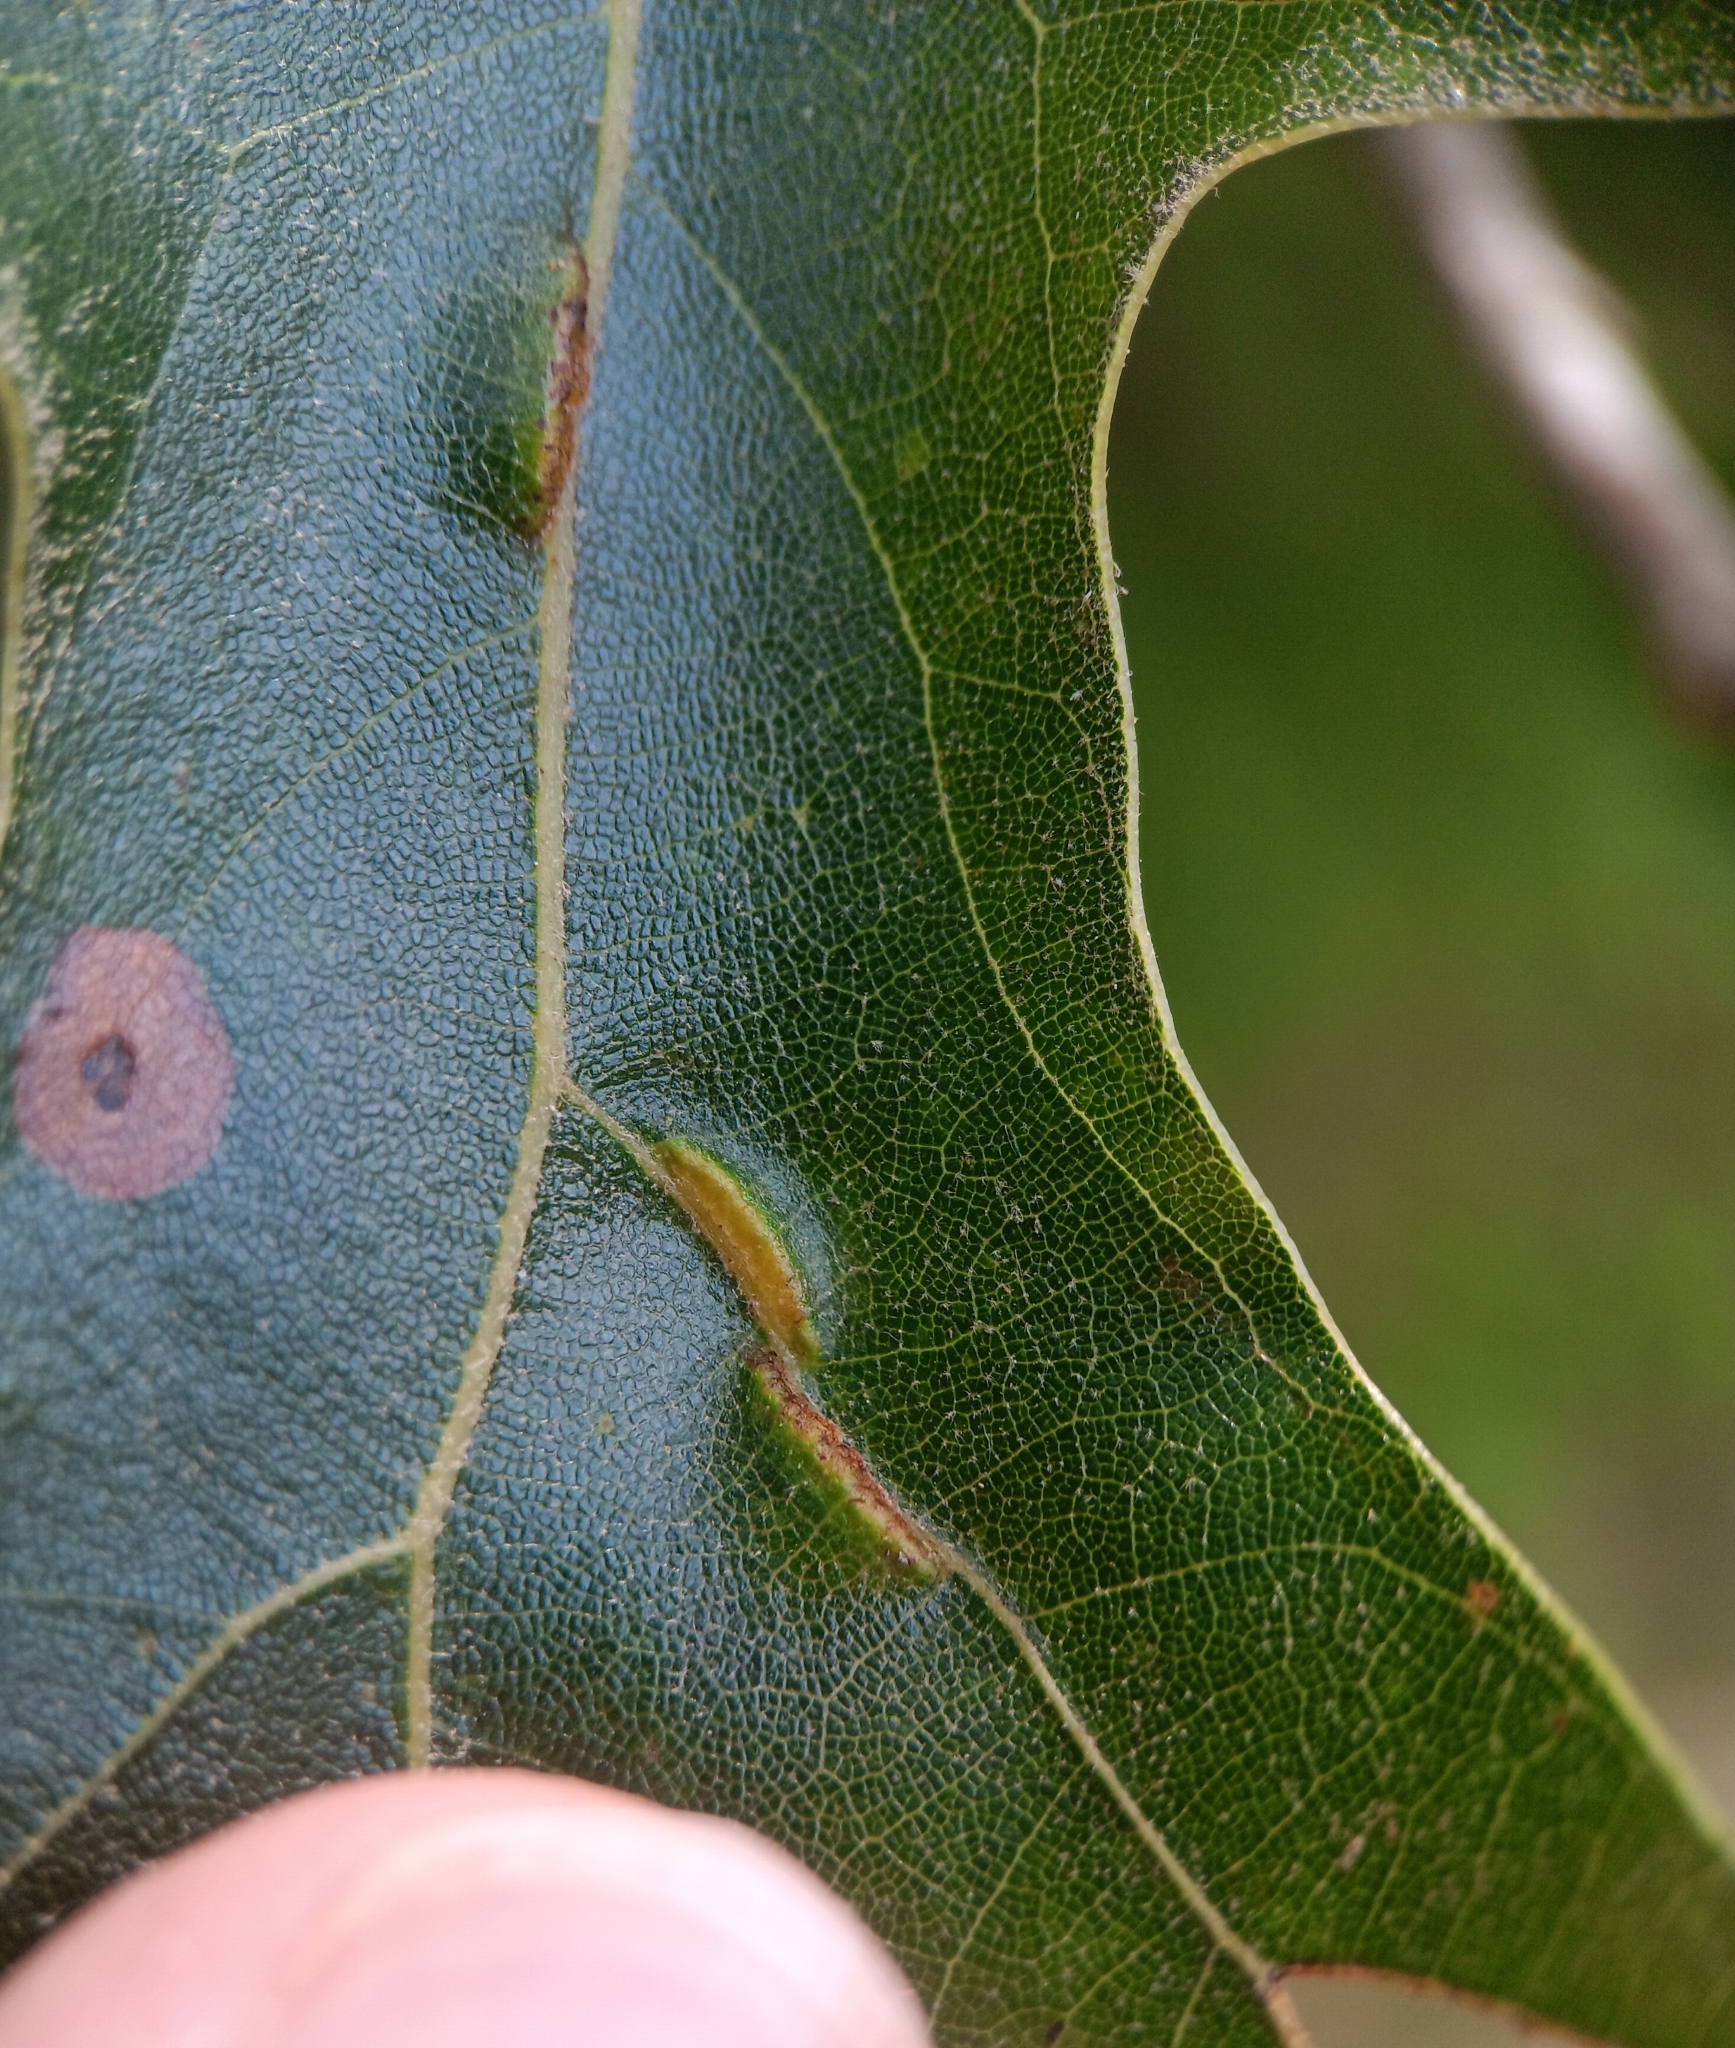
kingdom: Animalia
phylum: Arthropoda
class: Insecta
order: Diptera
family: Cecidomyiidae
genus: Macrodiplosis
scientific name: Macrodiplosis q-orucum
